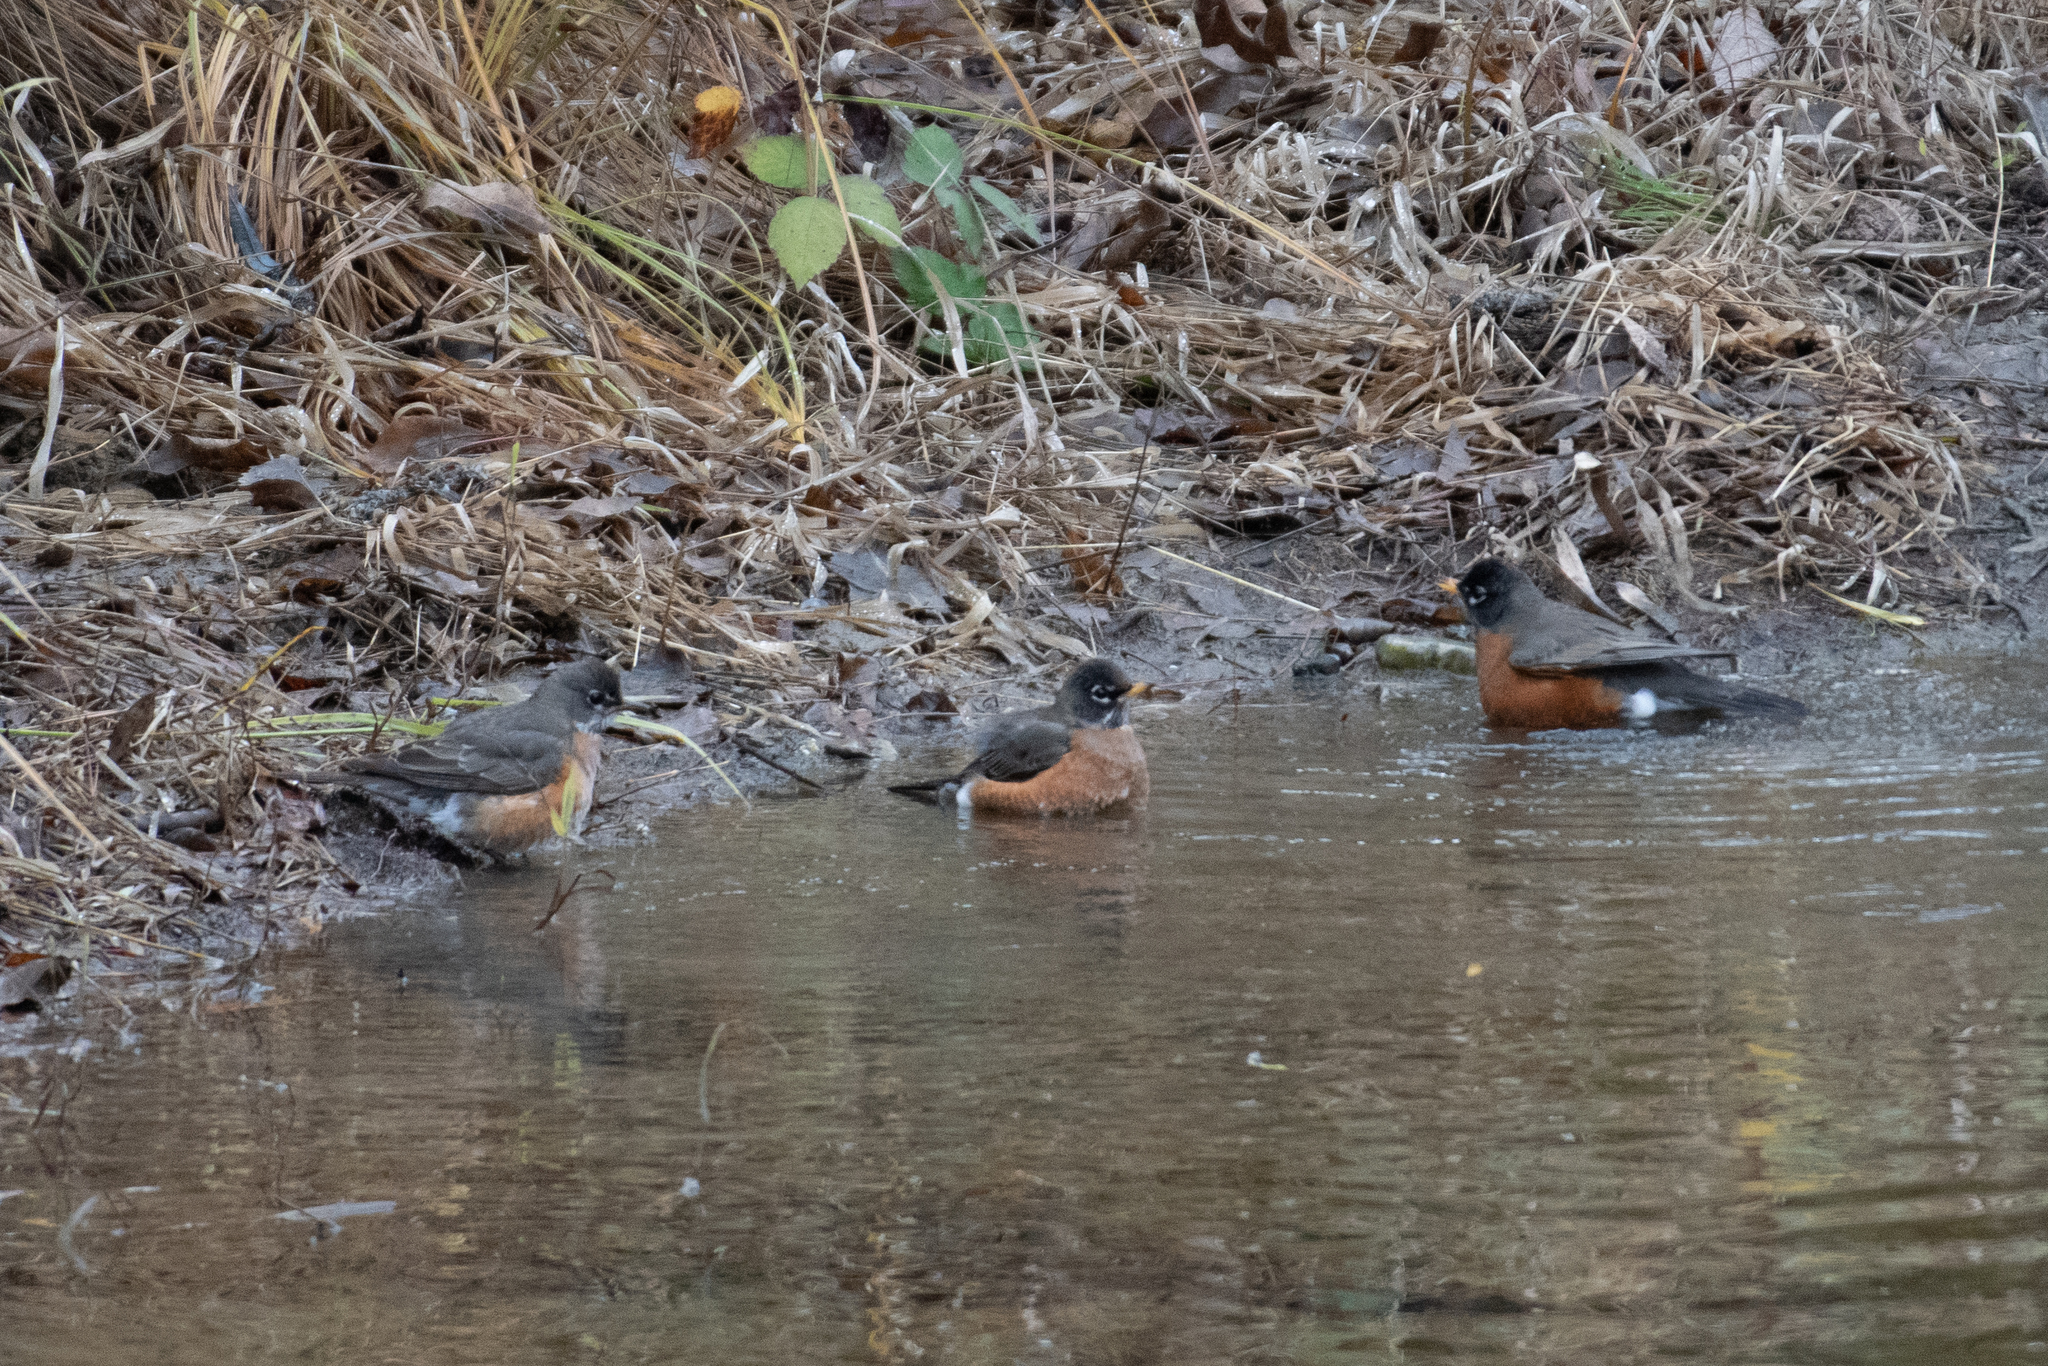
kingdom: Animalia
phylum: Chordata
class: Aves
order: Passeriformes
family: Turdidae
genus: Turdus
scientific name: Turdus migratorius
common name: American robin
